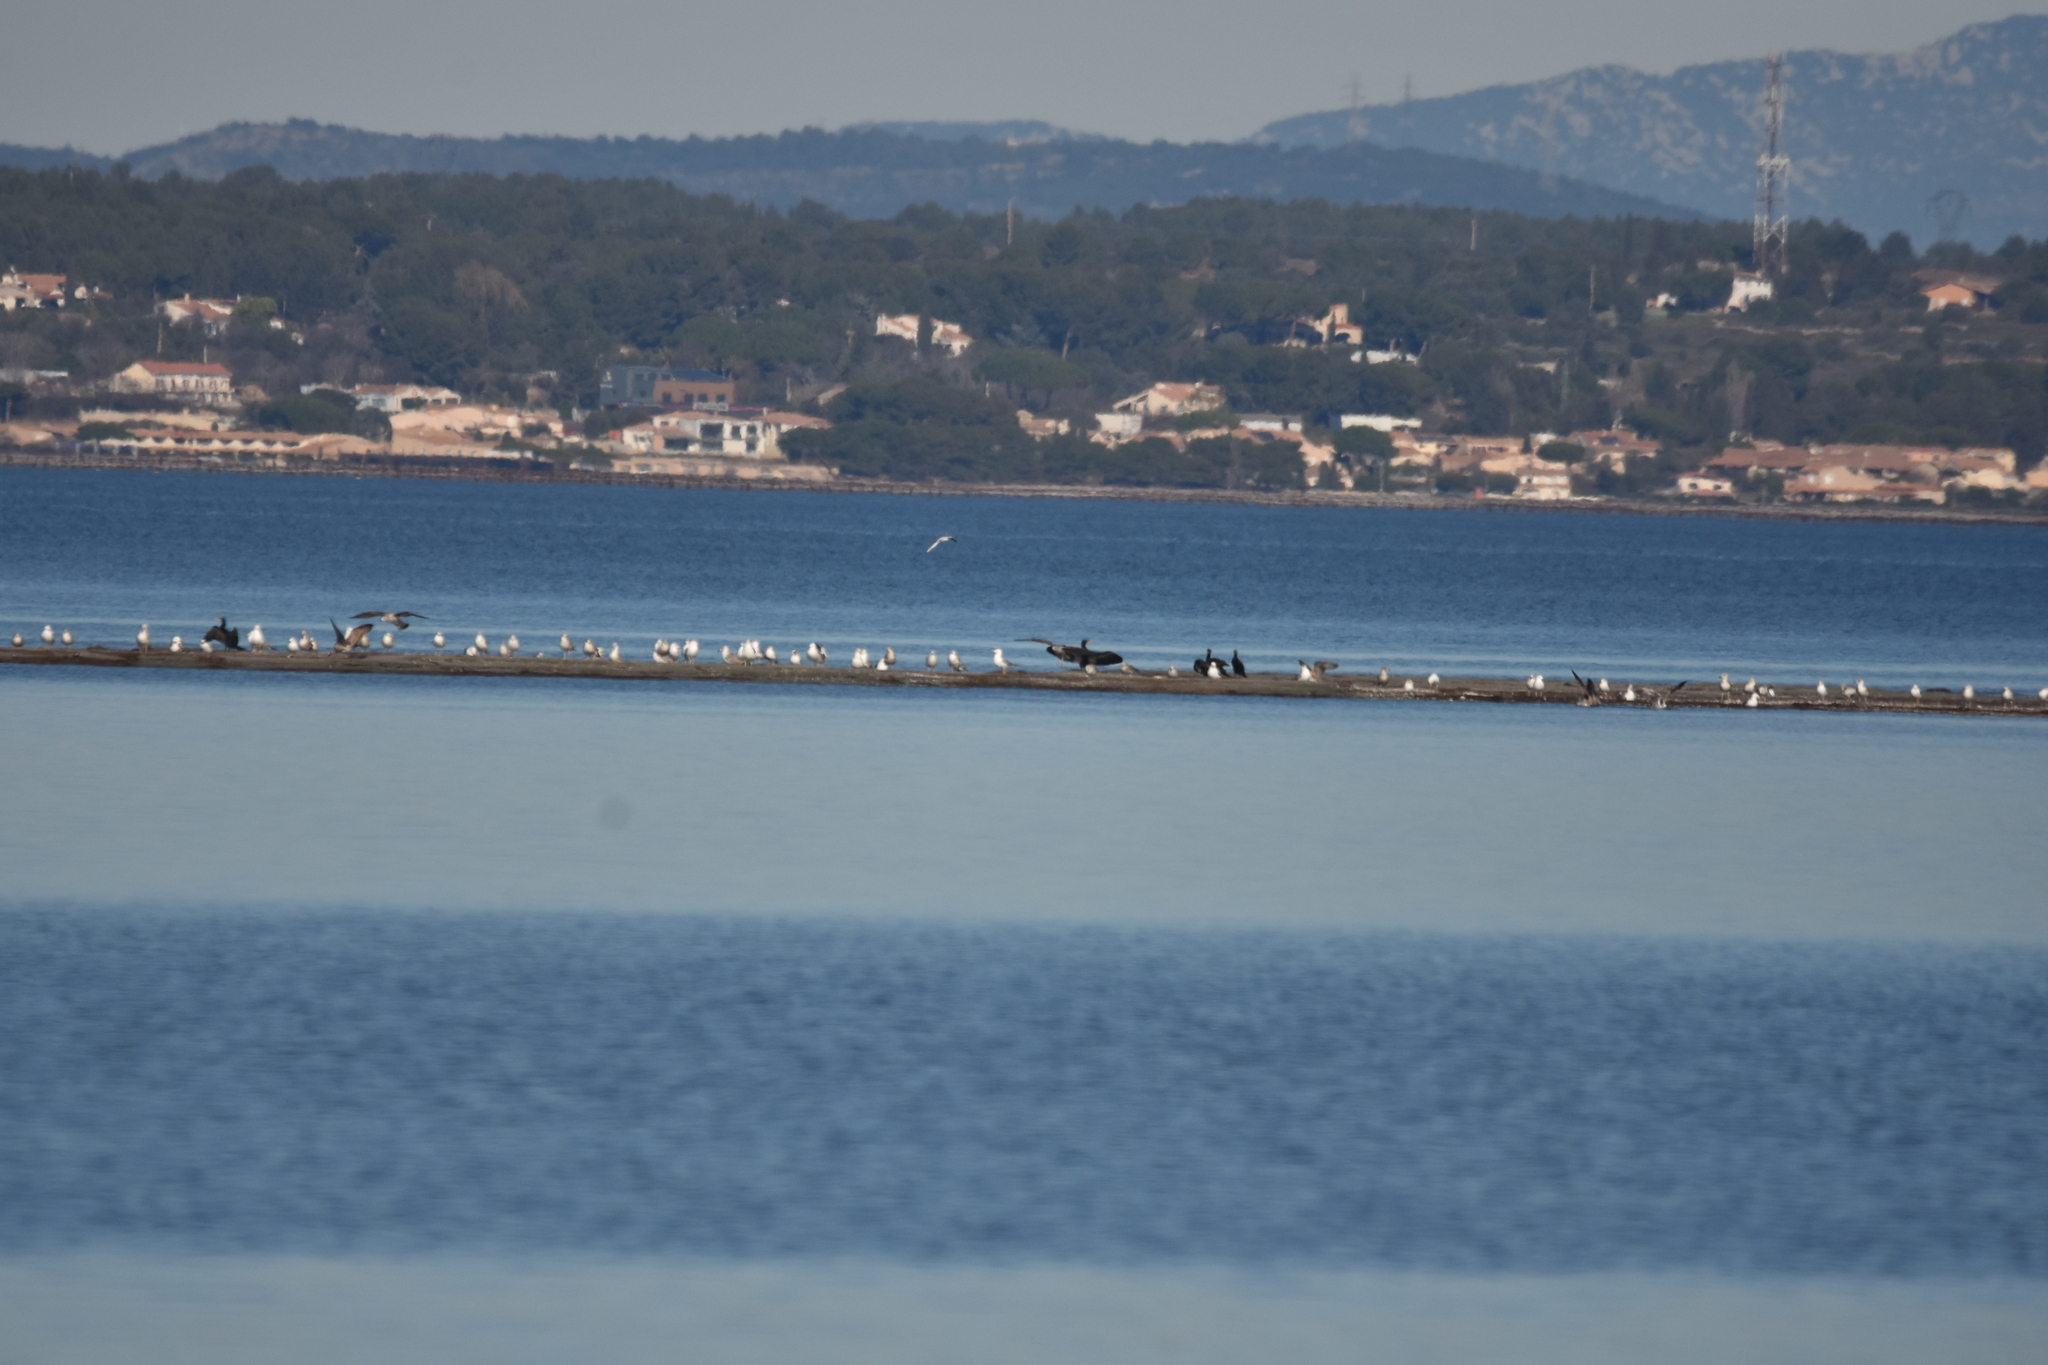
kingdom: Animalia
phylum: Chordata
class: Aves
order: Suliformes
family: Phalacrocoracidae
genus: Phalacrocorax
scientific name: Phalacrocorax carbo
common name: Great cormorant
